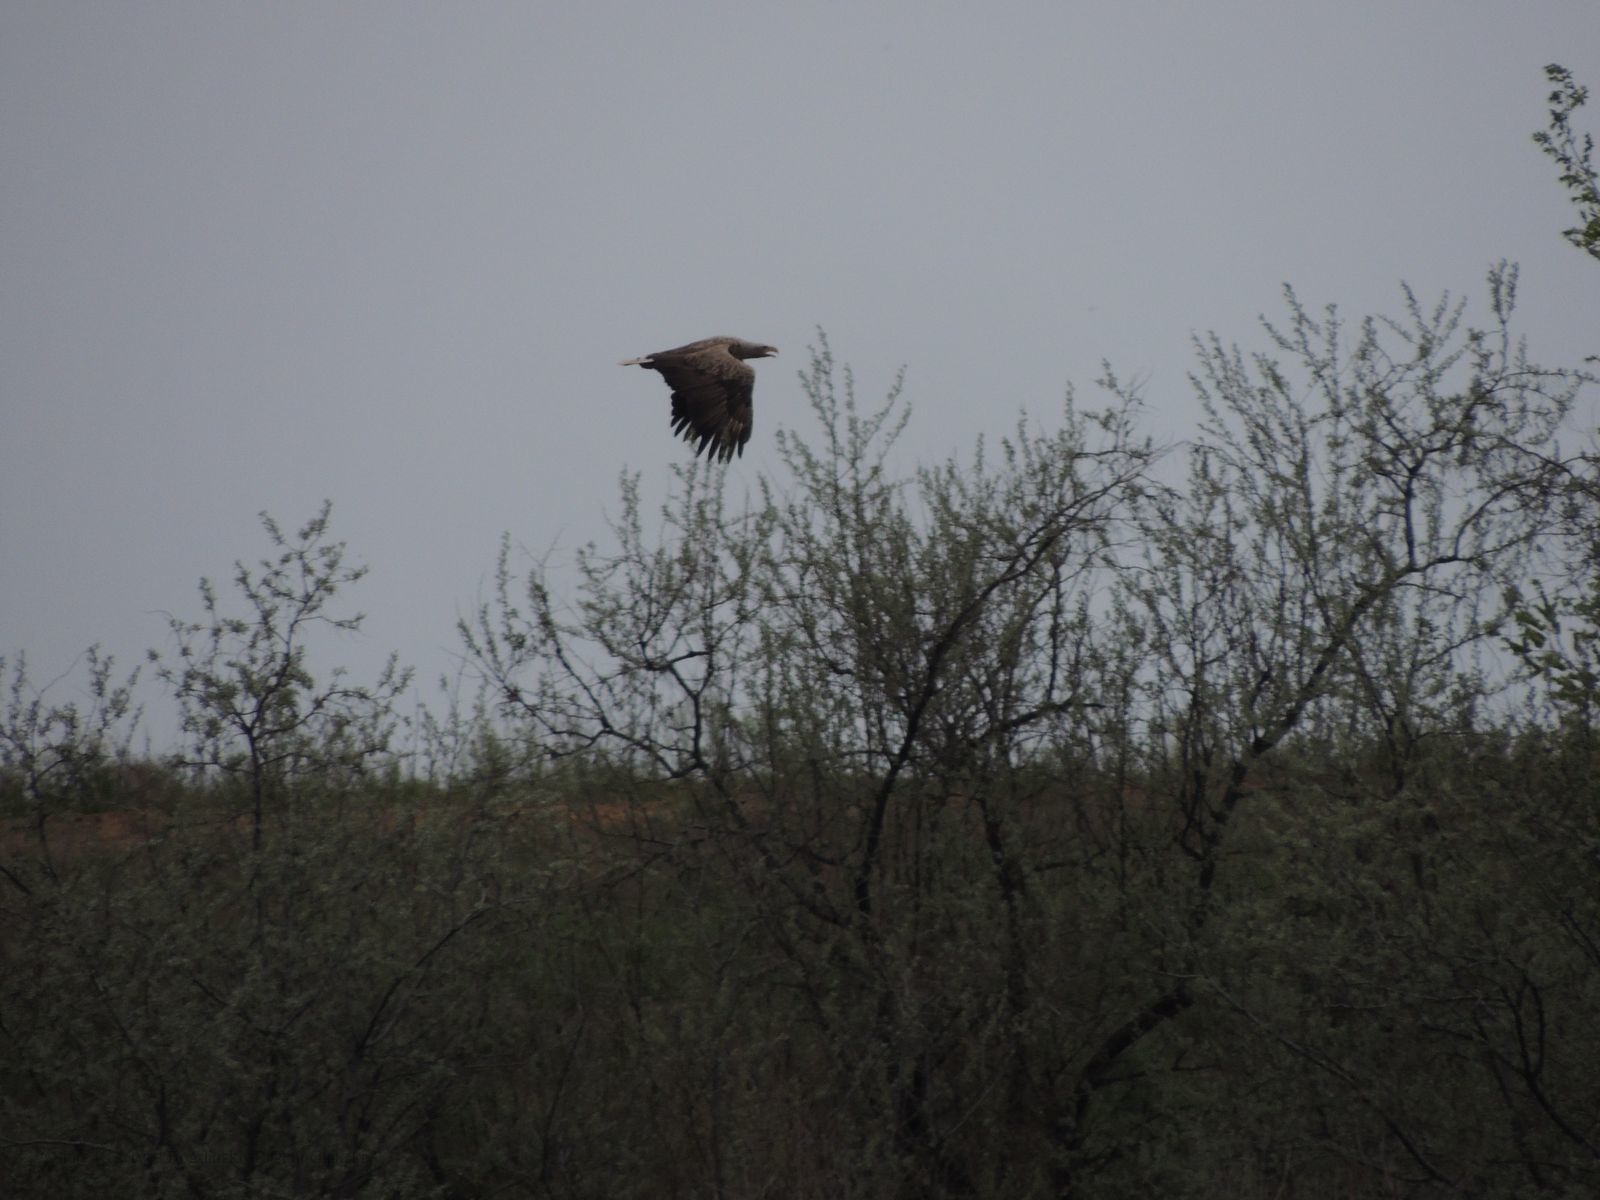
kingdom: Animalia
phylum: Chordata
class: Aves
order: Accipitriformes
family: Accipitridae
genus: Haliaeetus
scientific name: Haliaeetus albicilla
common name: White-tailed eagle
